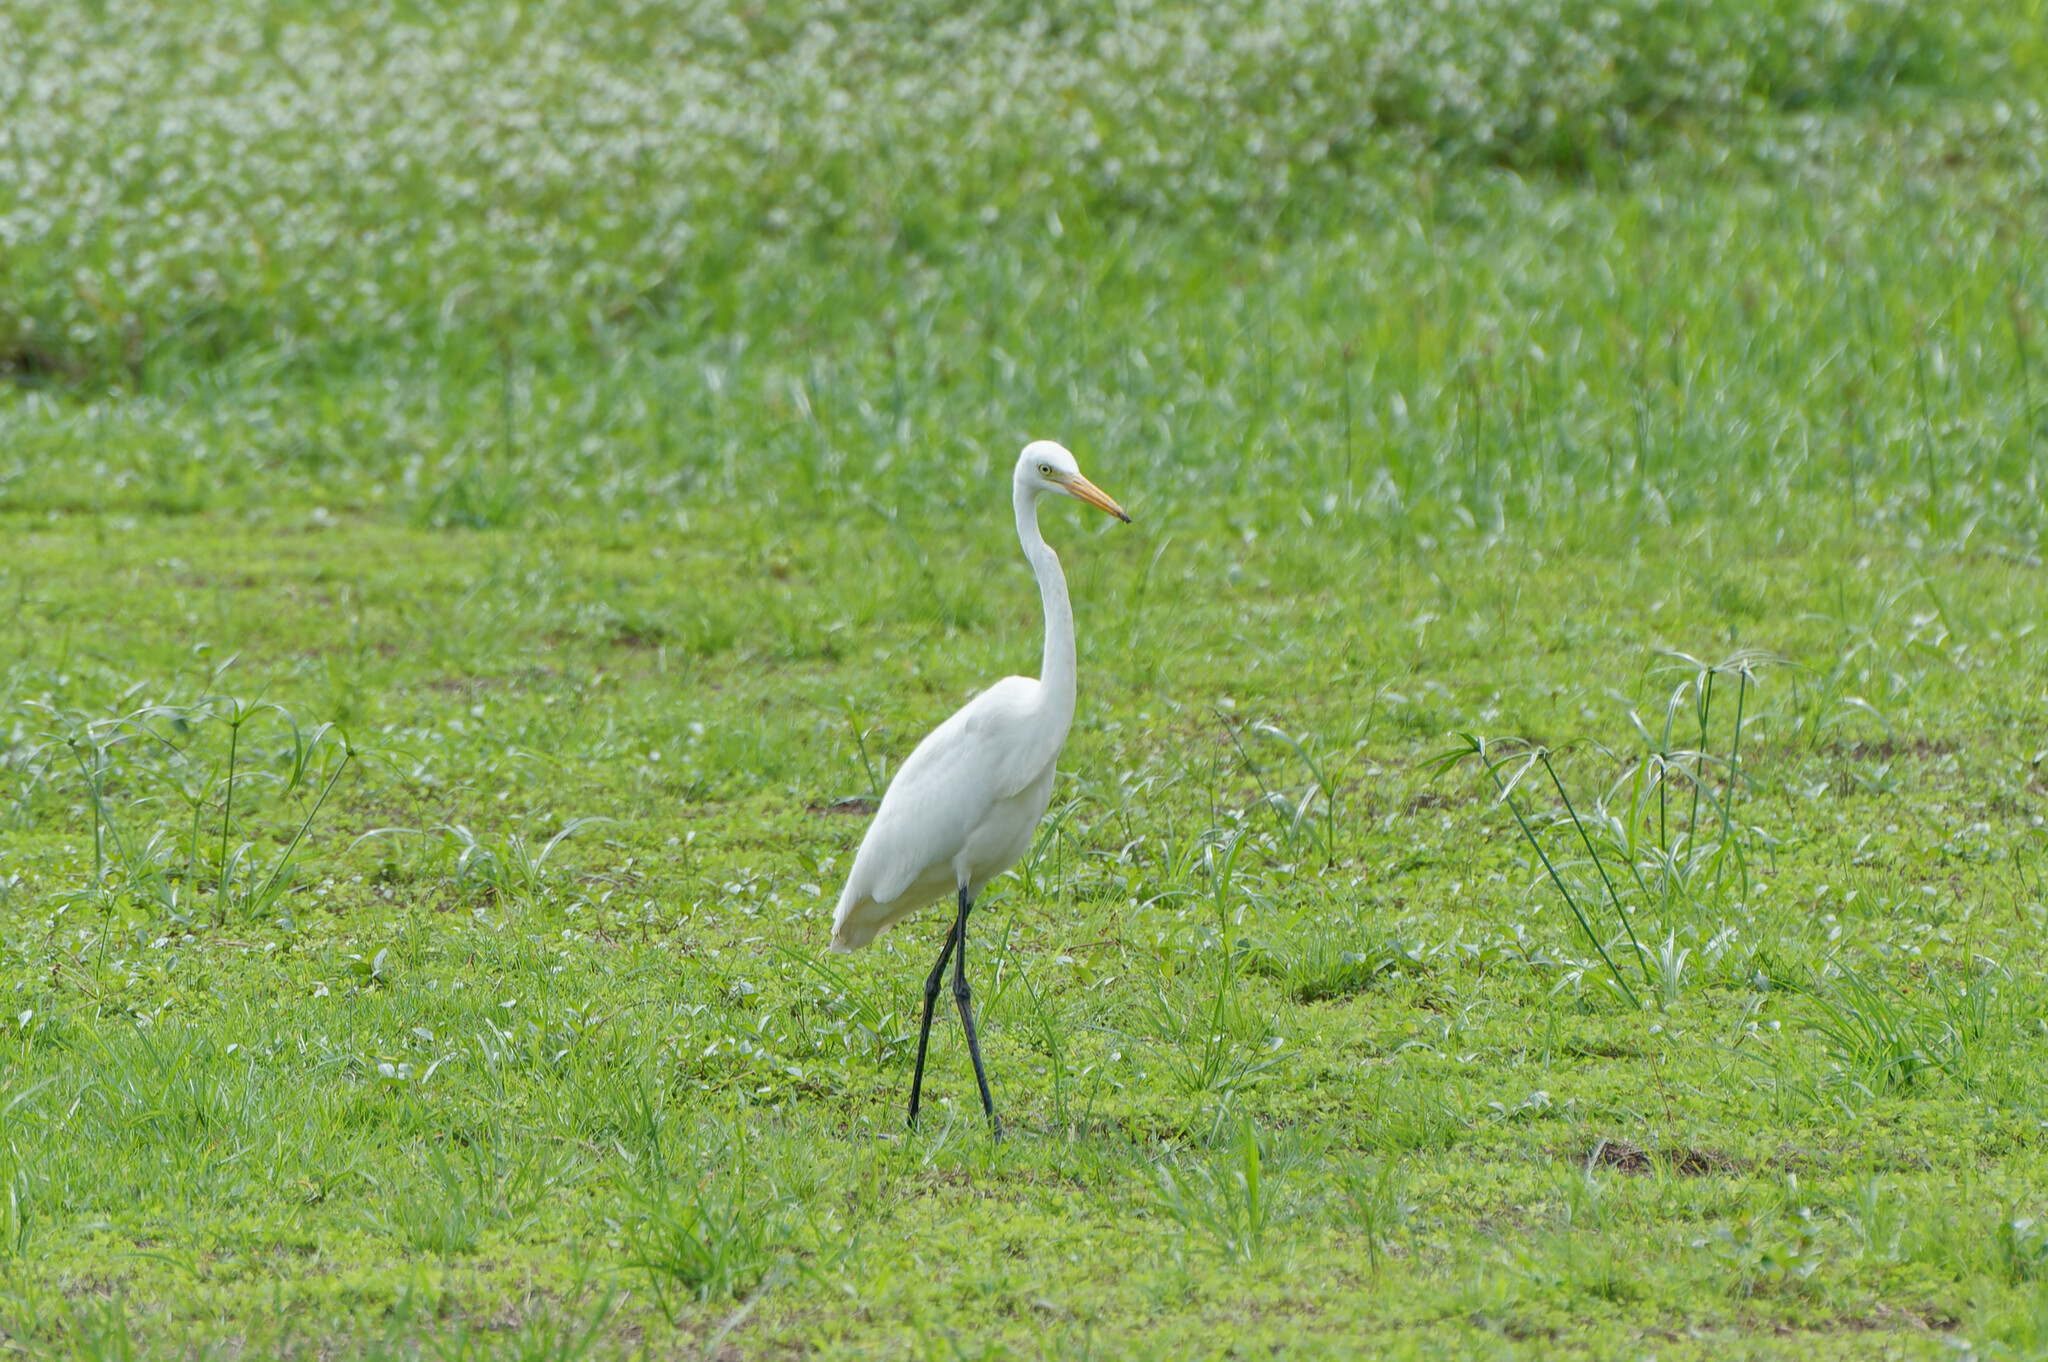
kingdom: Animalia
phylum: Chordata
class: Aves
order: Pelecaniformes
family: Ardeidae
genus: Egretta
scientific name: Egretta intermedia
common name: Intermediate egret
